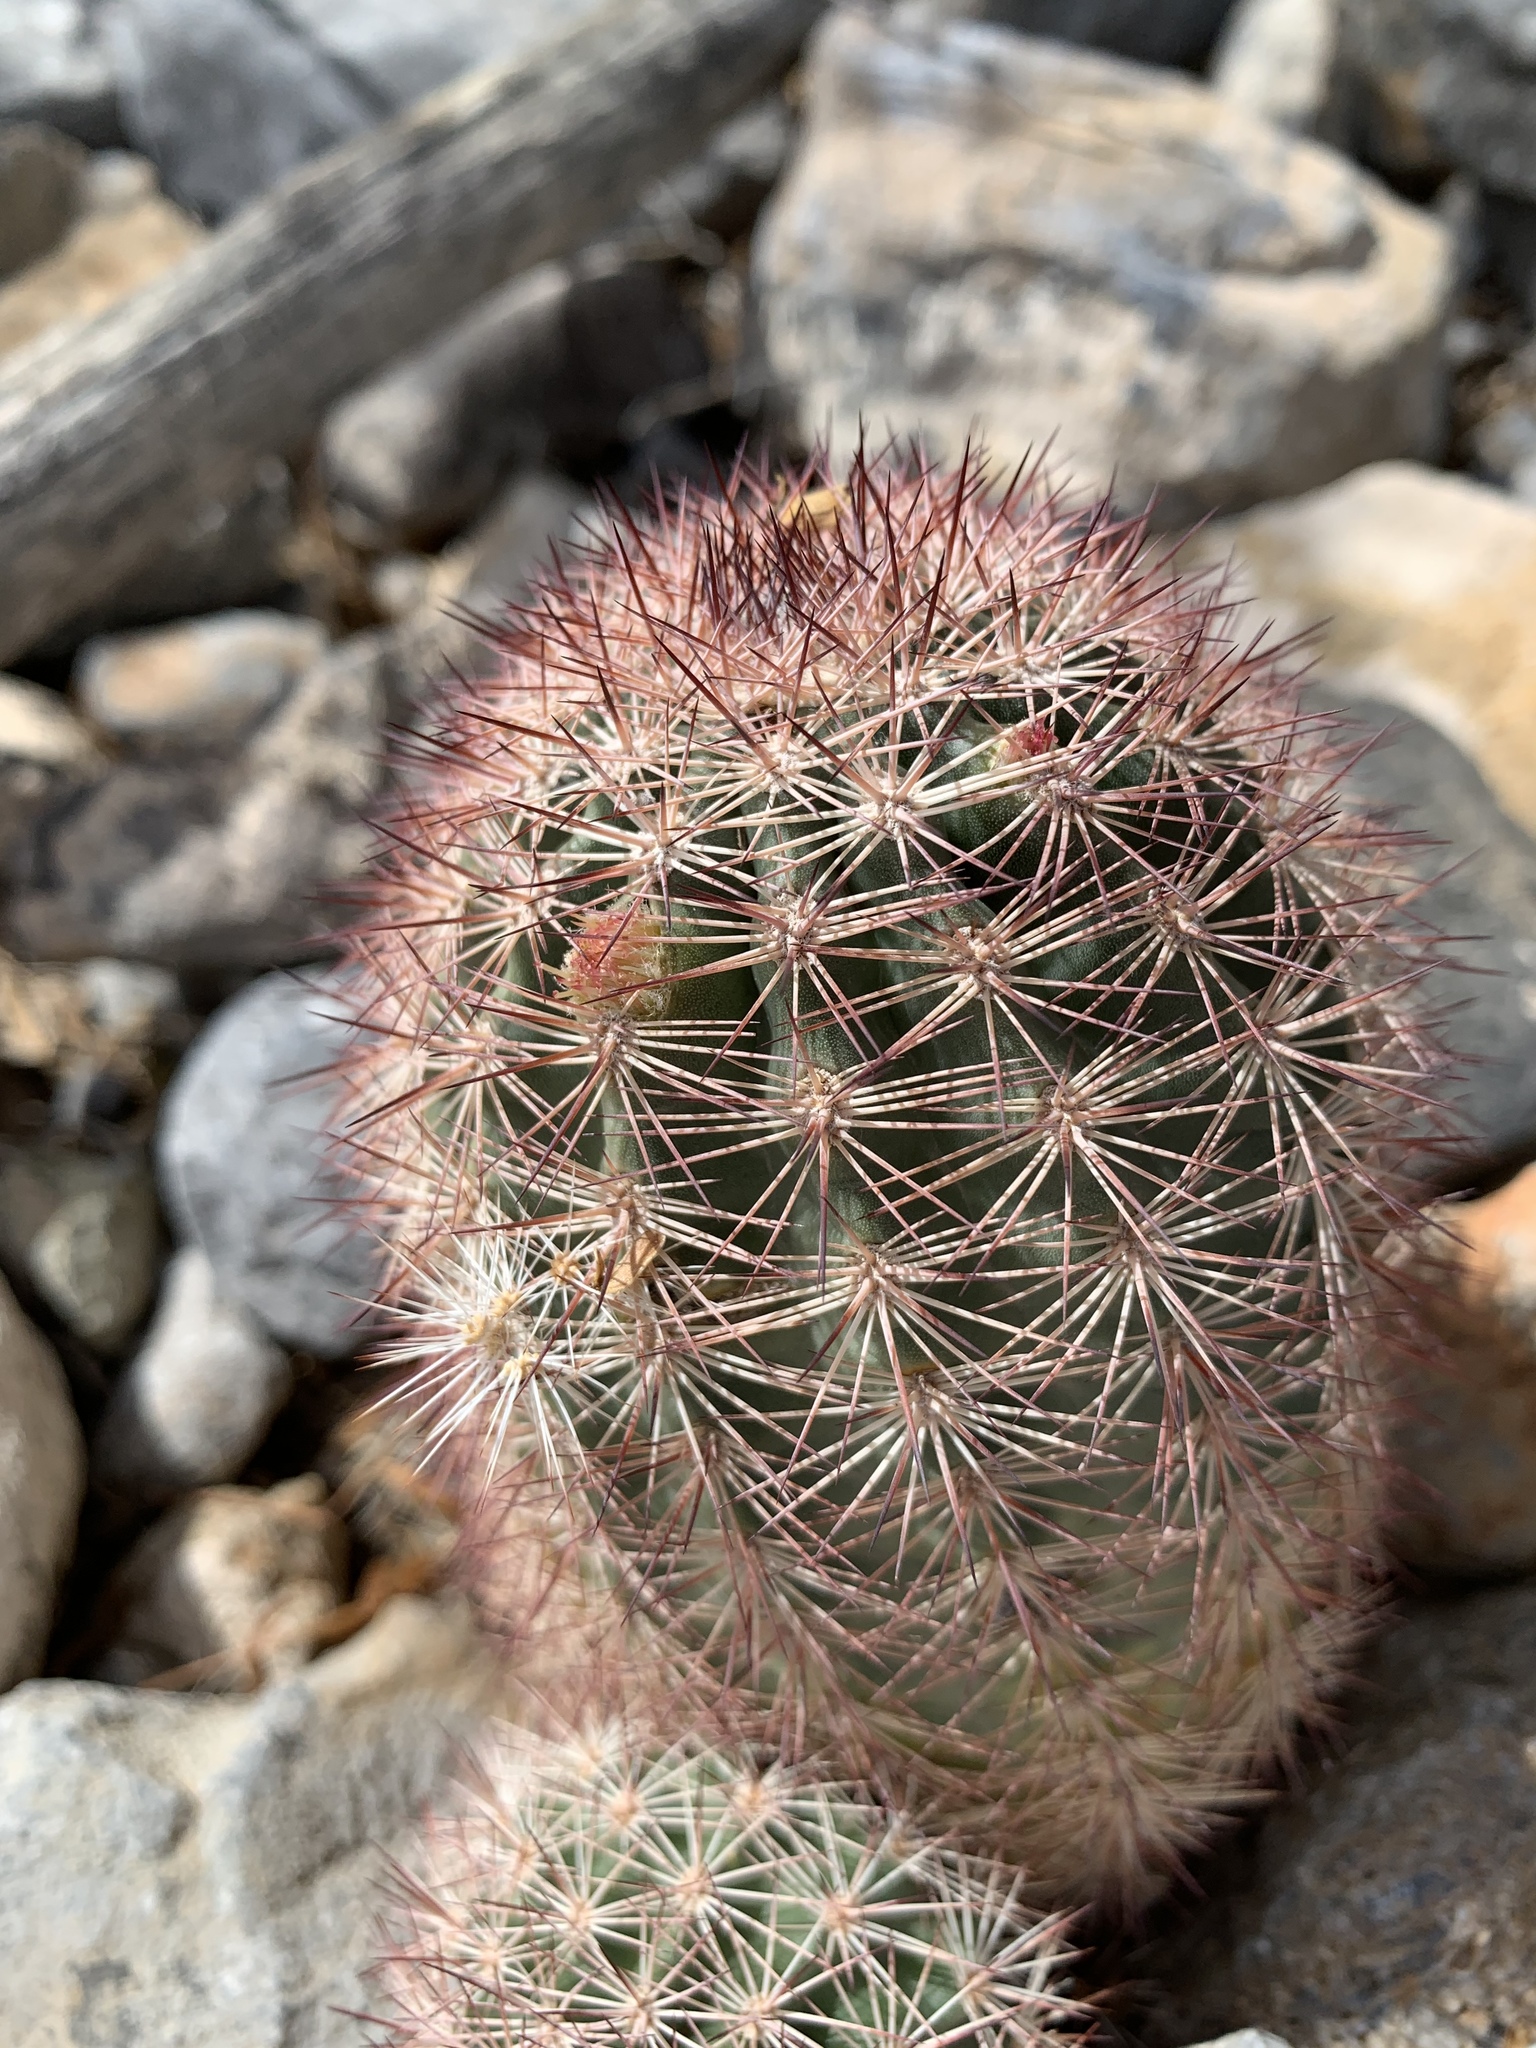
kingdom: Plantae
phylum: Tracheophyta
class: Magnoliopsida
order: Caryophyllales
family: Cactaceae
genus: Echinocereus
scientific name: Echinocereus dasyacanthus
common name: Spiny hedgehog cactus
